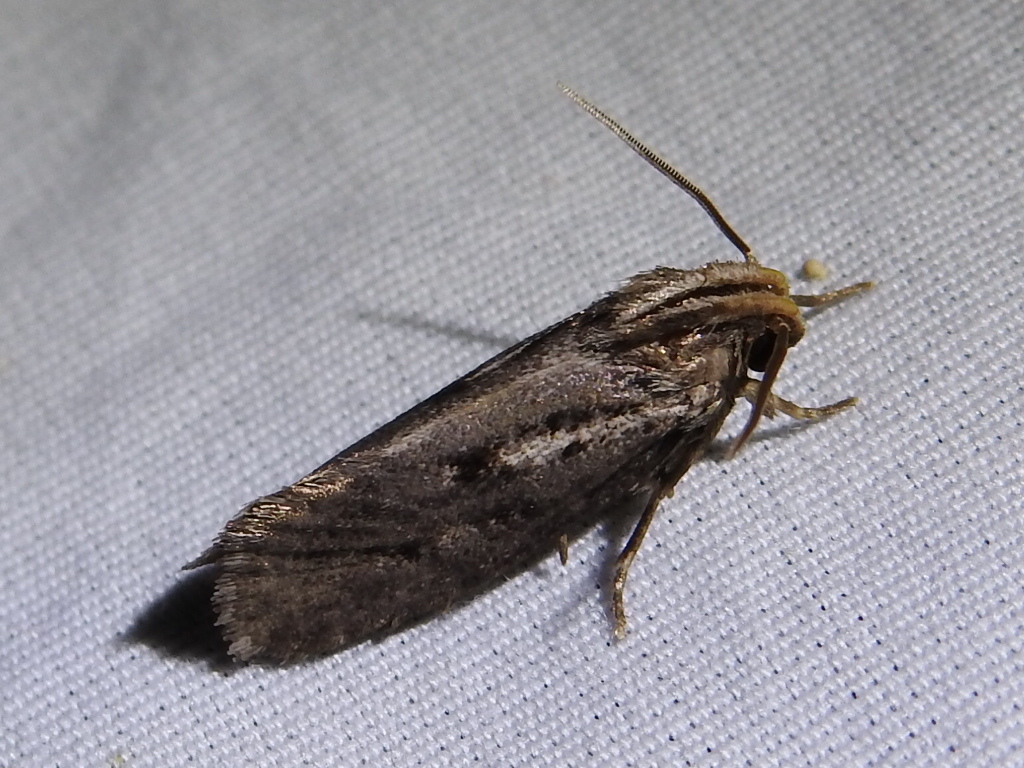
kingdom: Animalia
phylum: Arthropoda
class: Insecta
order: Lepidoptera
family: Tineidae
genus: Acrolophus
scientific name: Acrolophus popeanella
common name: Clemens' grass tubeworm moth
